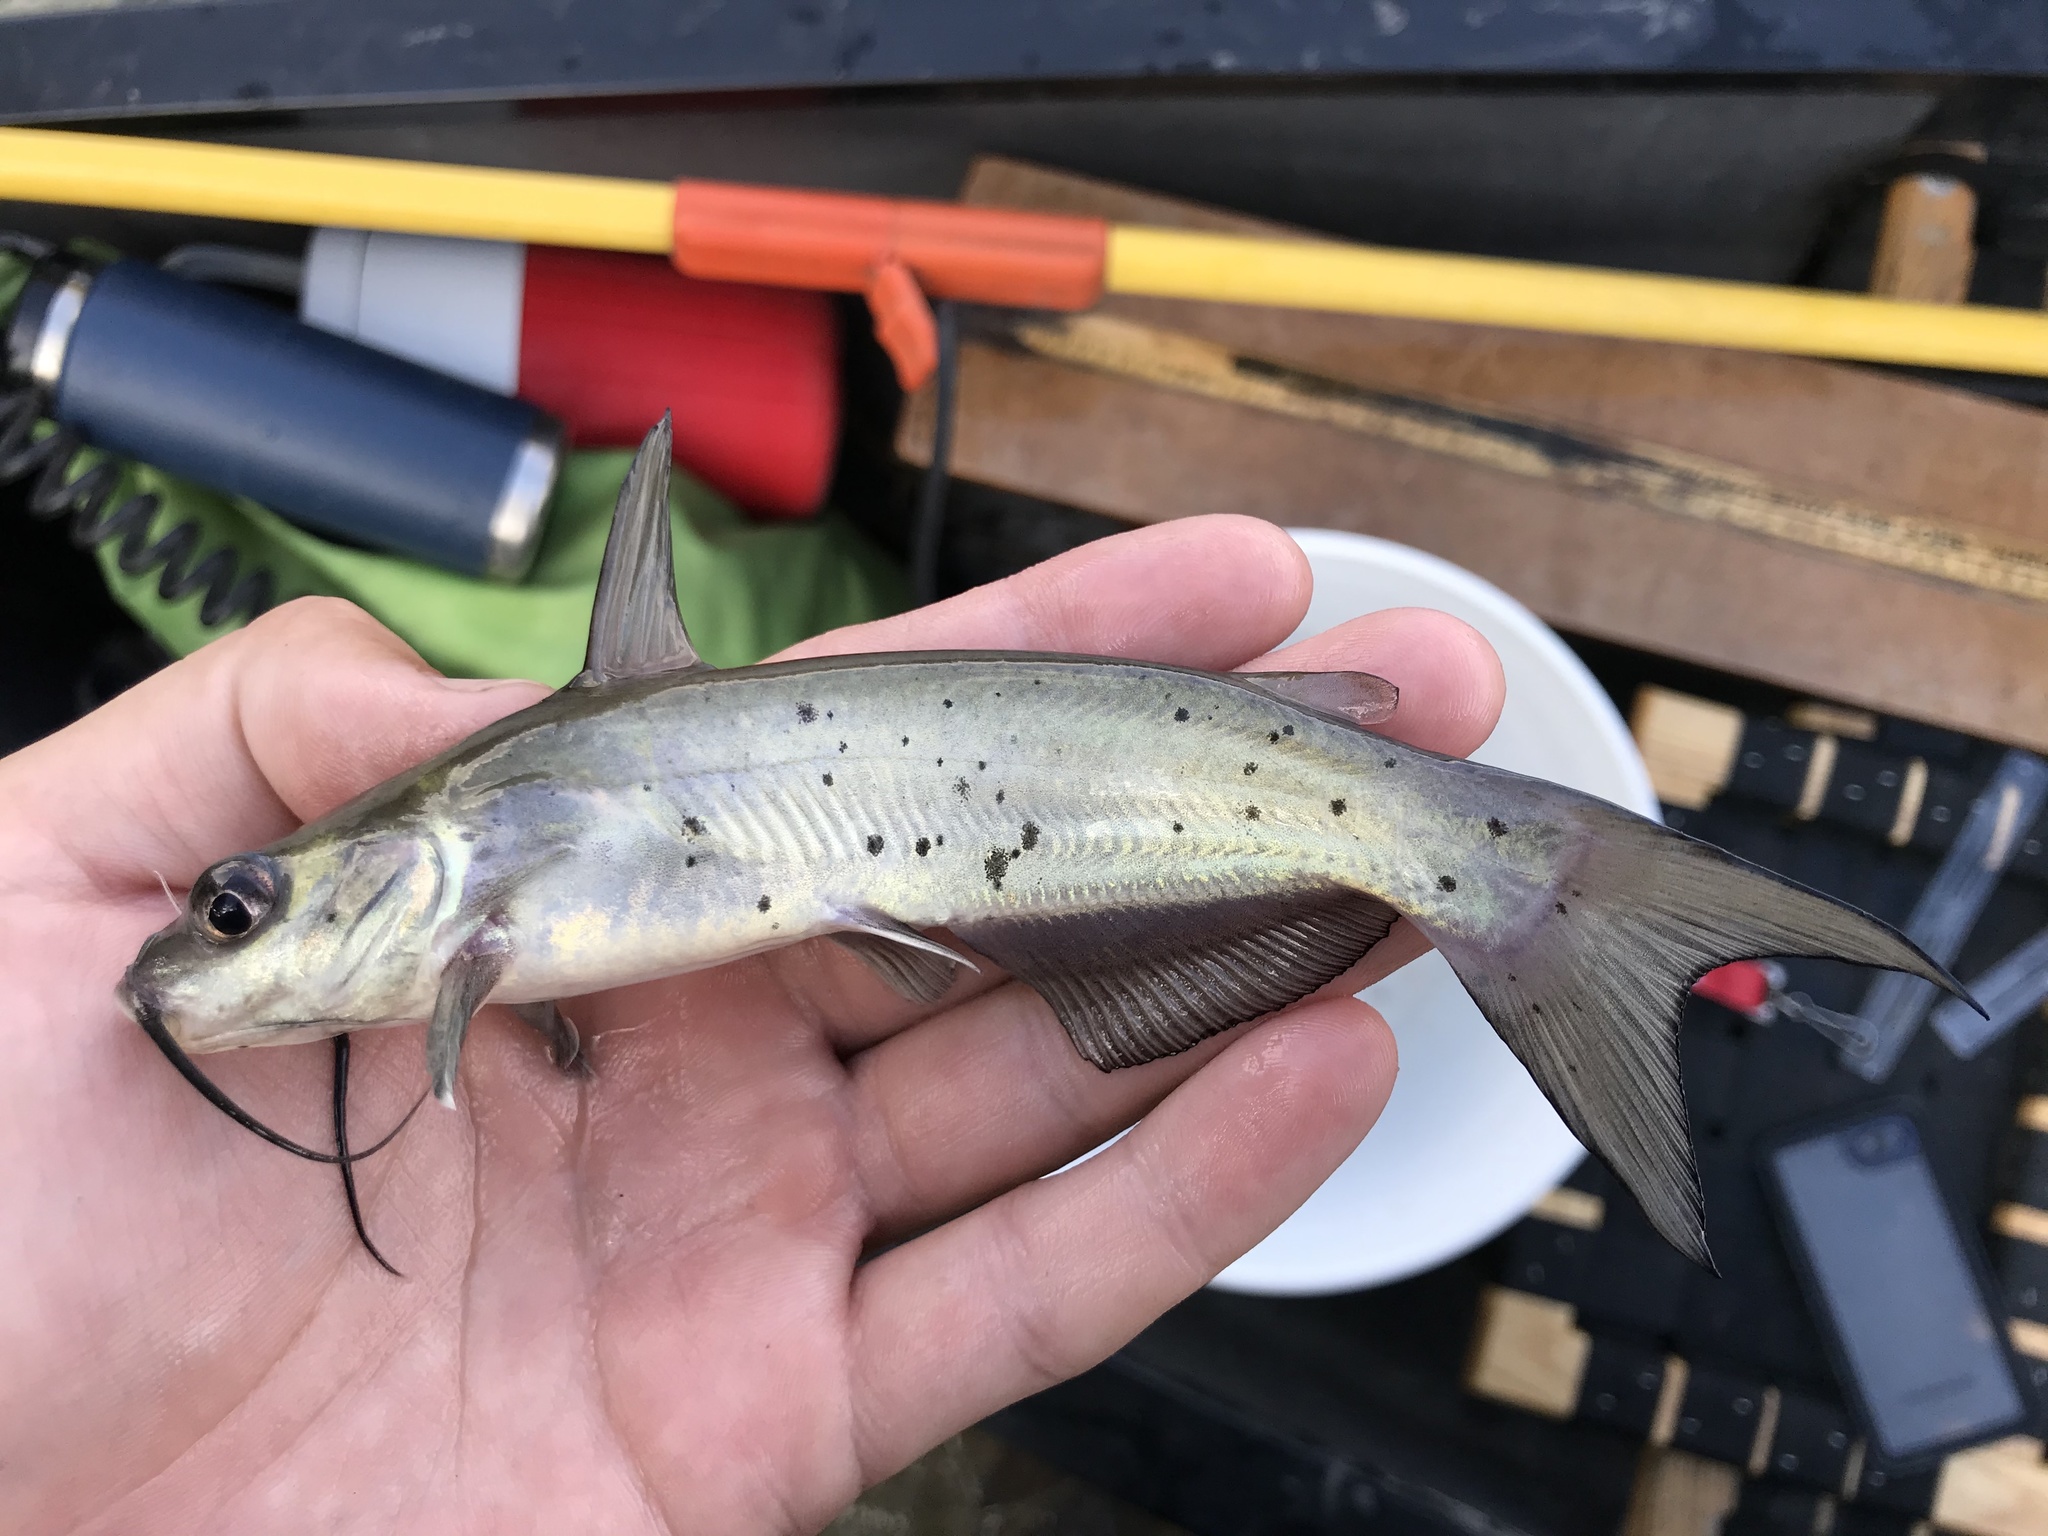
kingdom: Animalia
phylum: Chordata
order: Siluriformes
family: Ictaluridae
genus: Ictalurus
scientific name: Ictalurus punctatus
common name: Channel catfish
